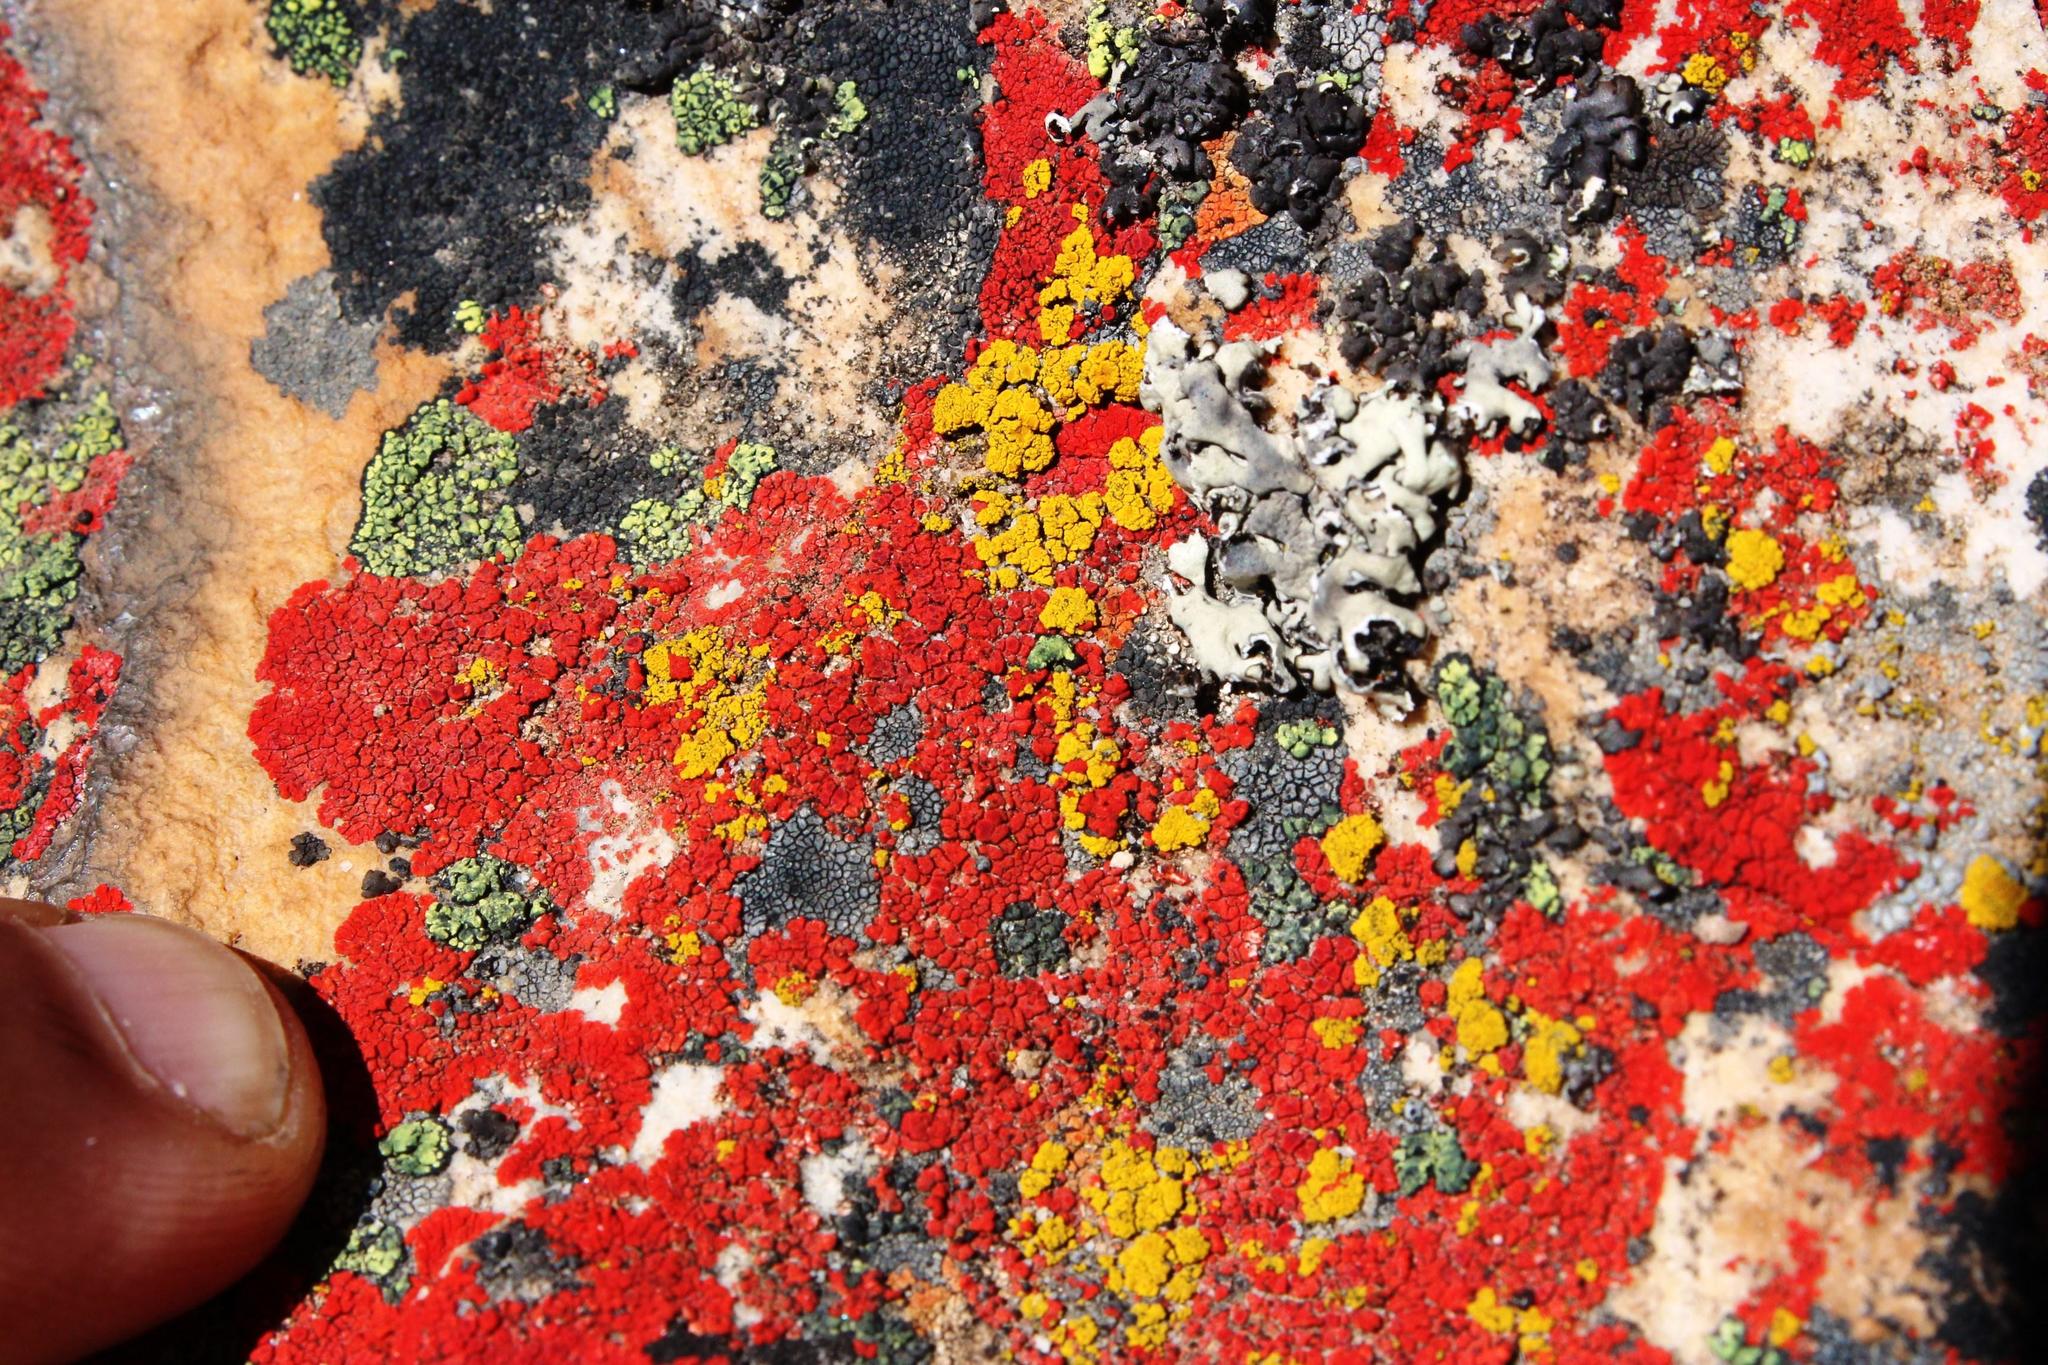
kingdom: Fungi
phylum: Ascomycota
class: Candelariomycetes
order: Candelariales
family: Candelariaceae
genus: Placomaronea
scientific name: Placomaronea minima
